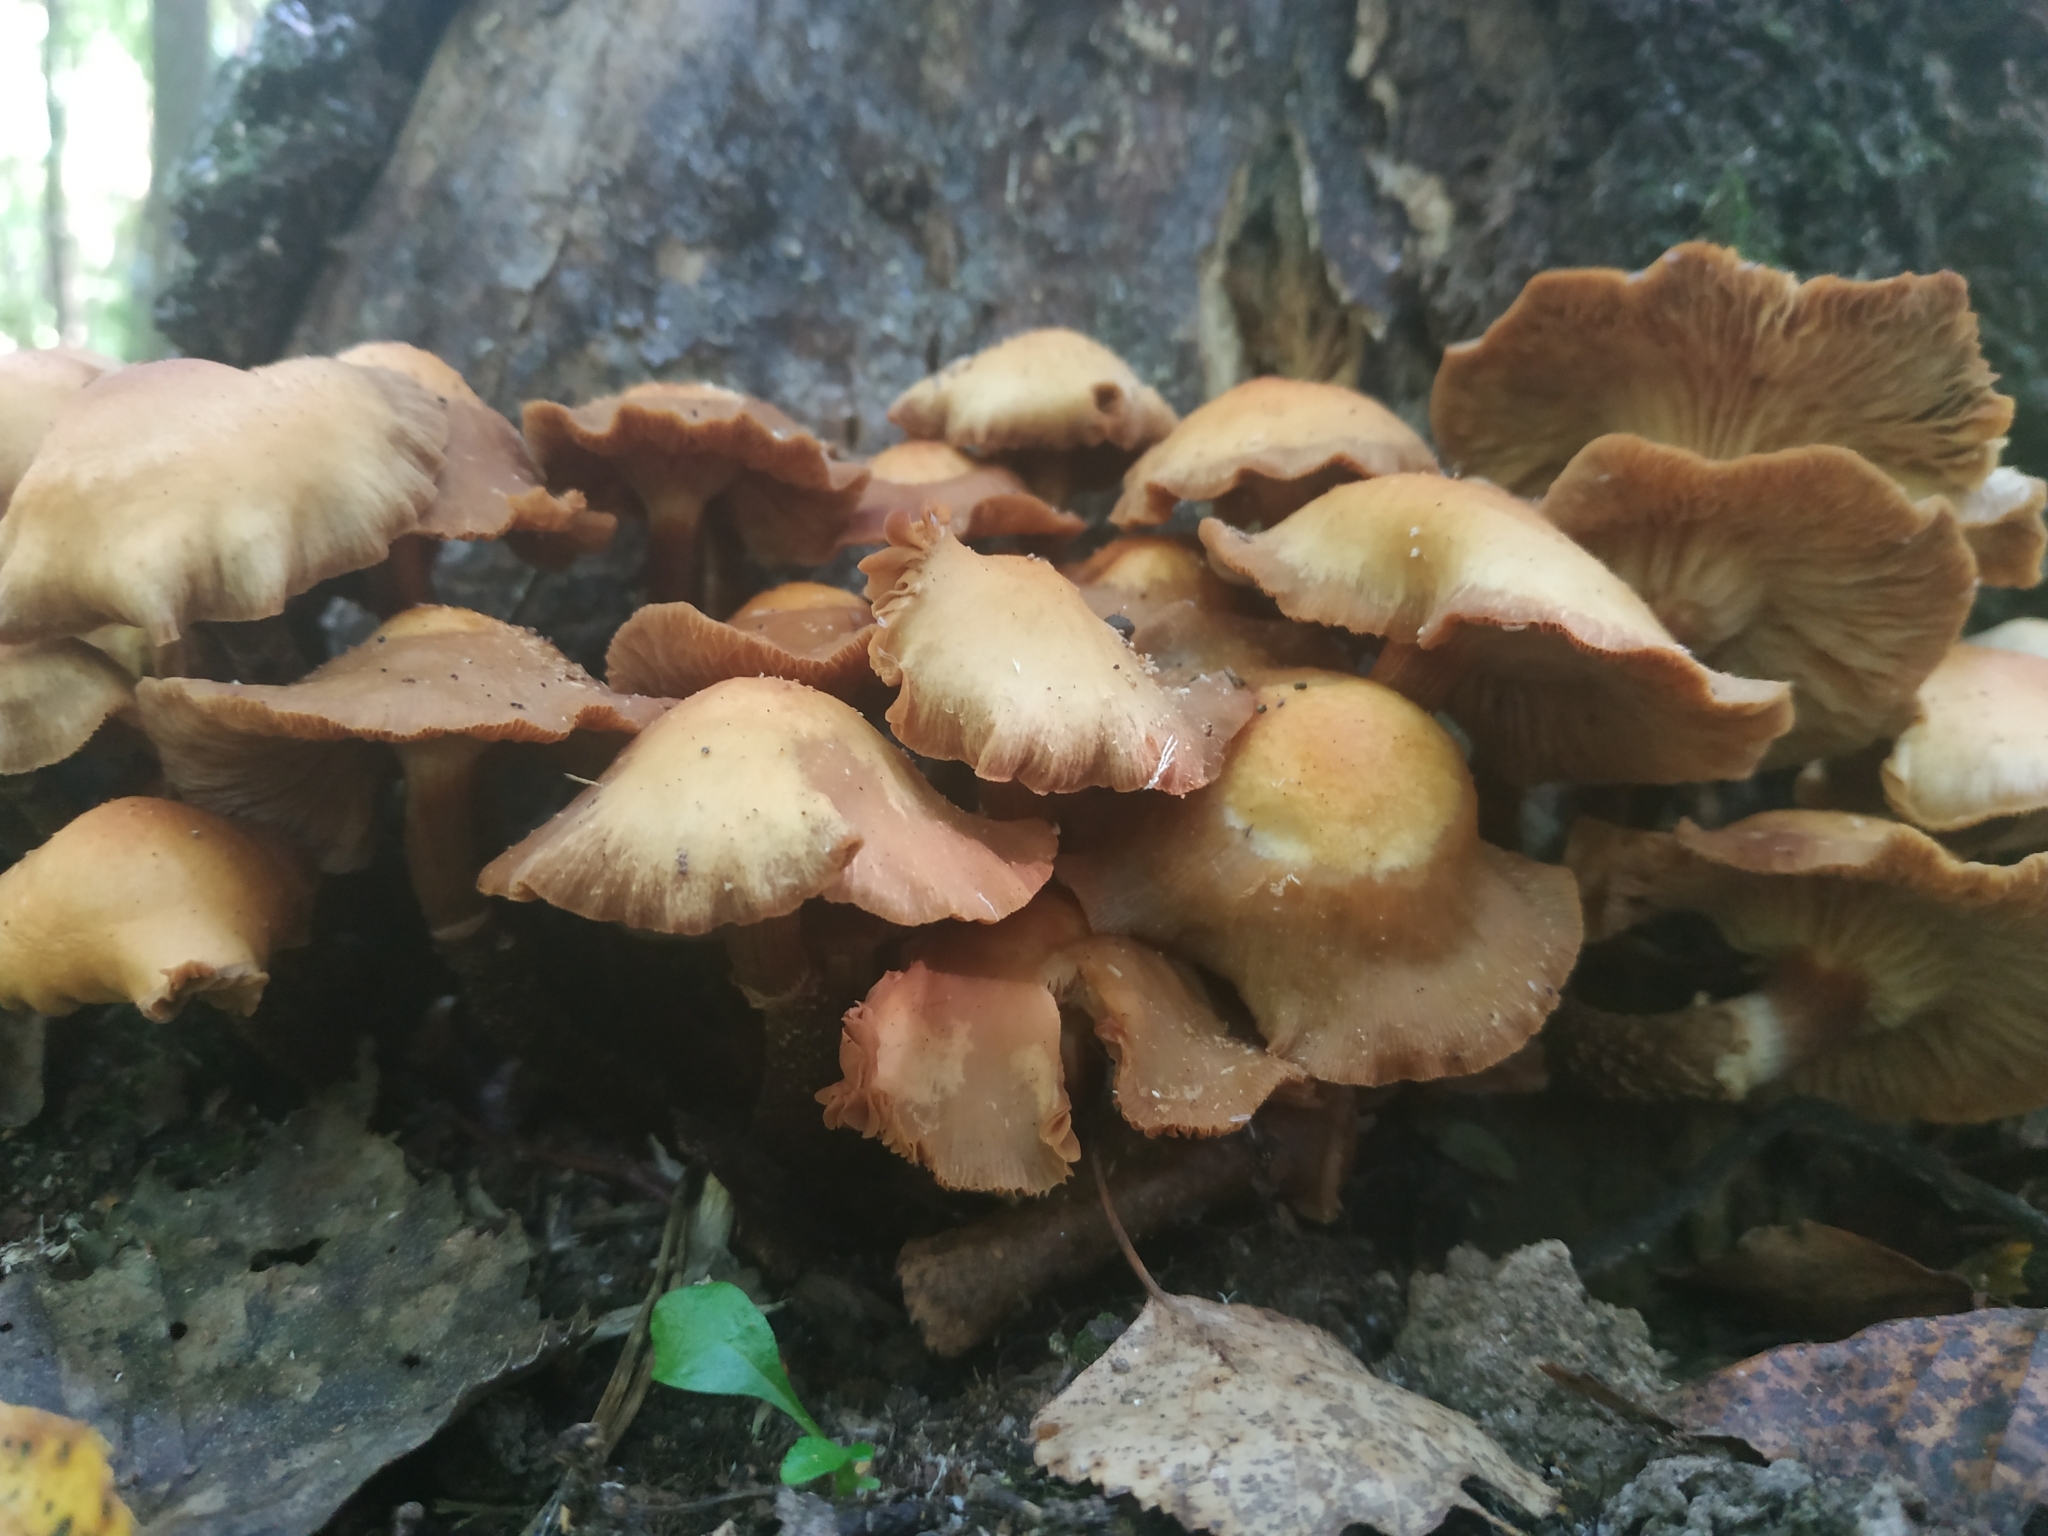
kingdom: Fungi
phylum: Basidiomycota
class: Agaricomycetes
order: Agaricales
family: Strophariaceae
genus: Kuehneromyces
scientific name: Kuehneromyces mutabilis
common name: Sheathed woodtuft
